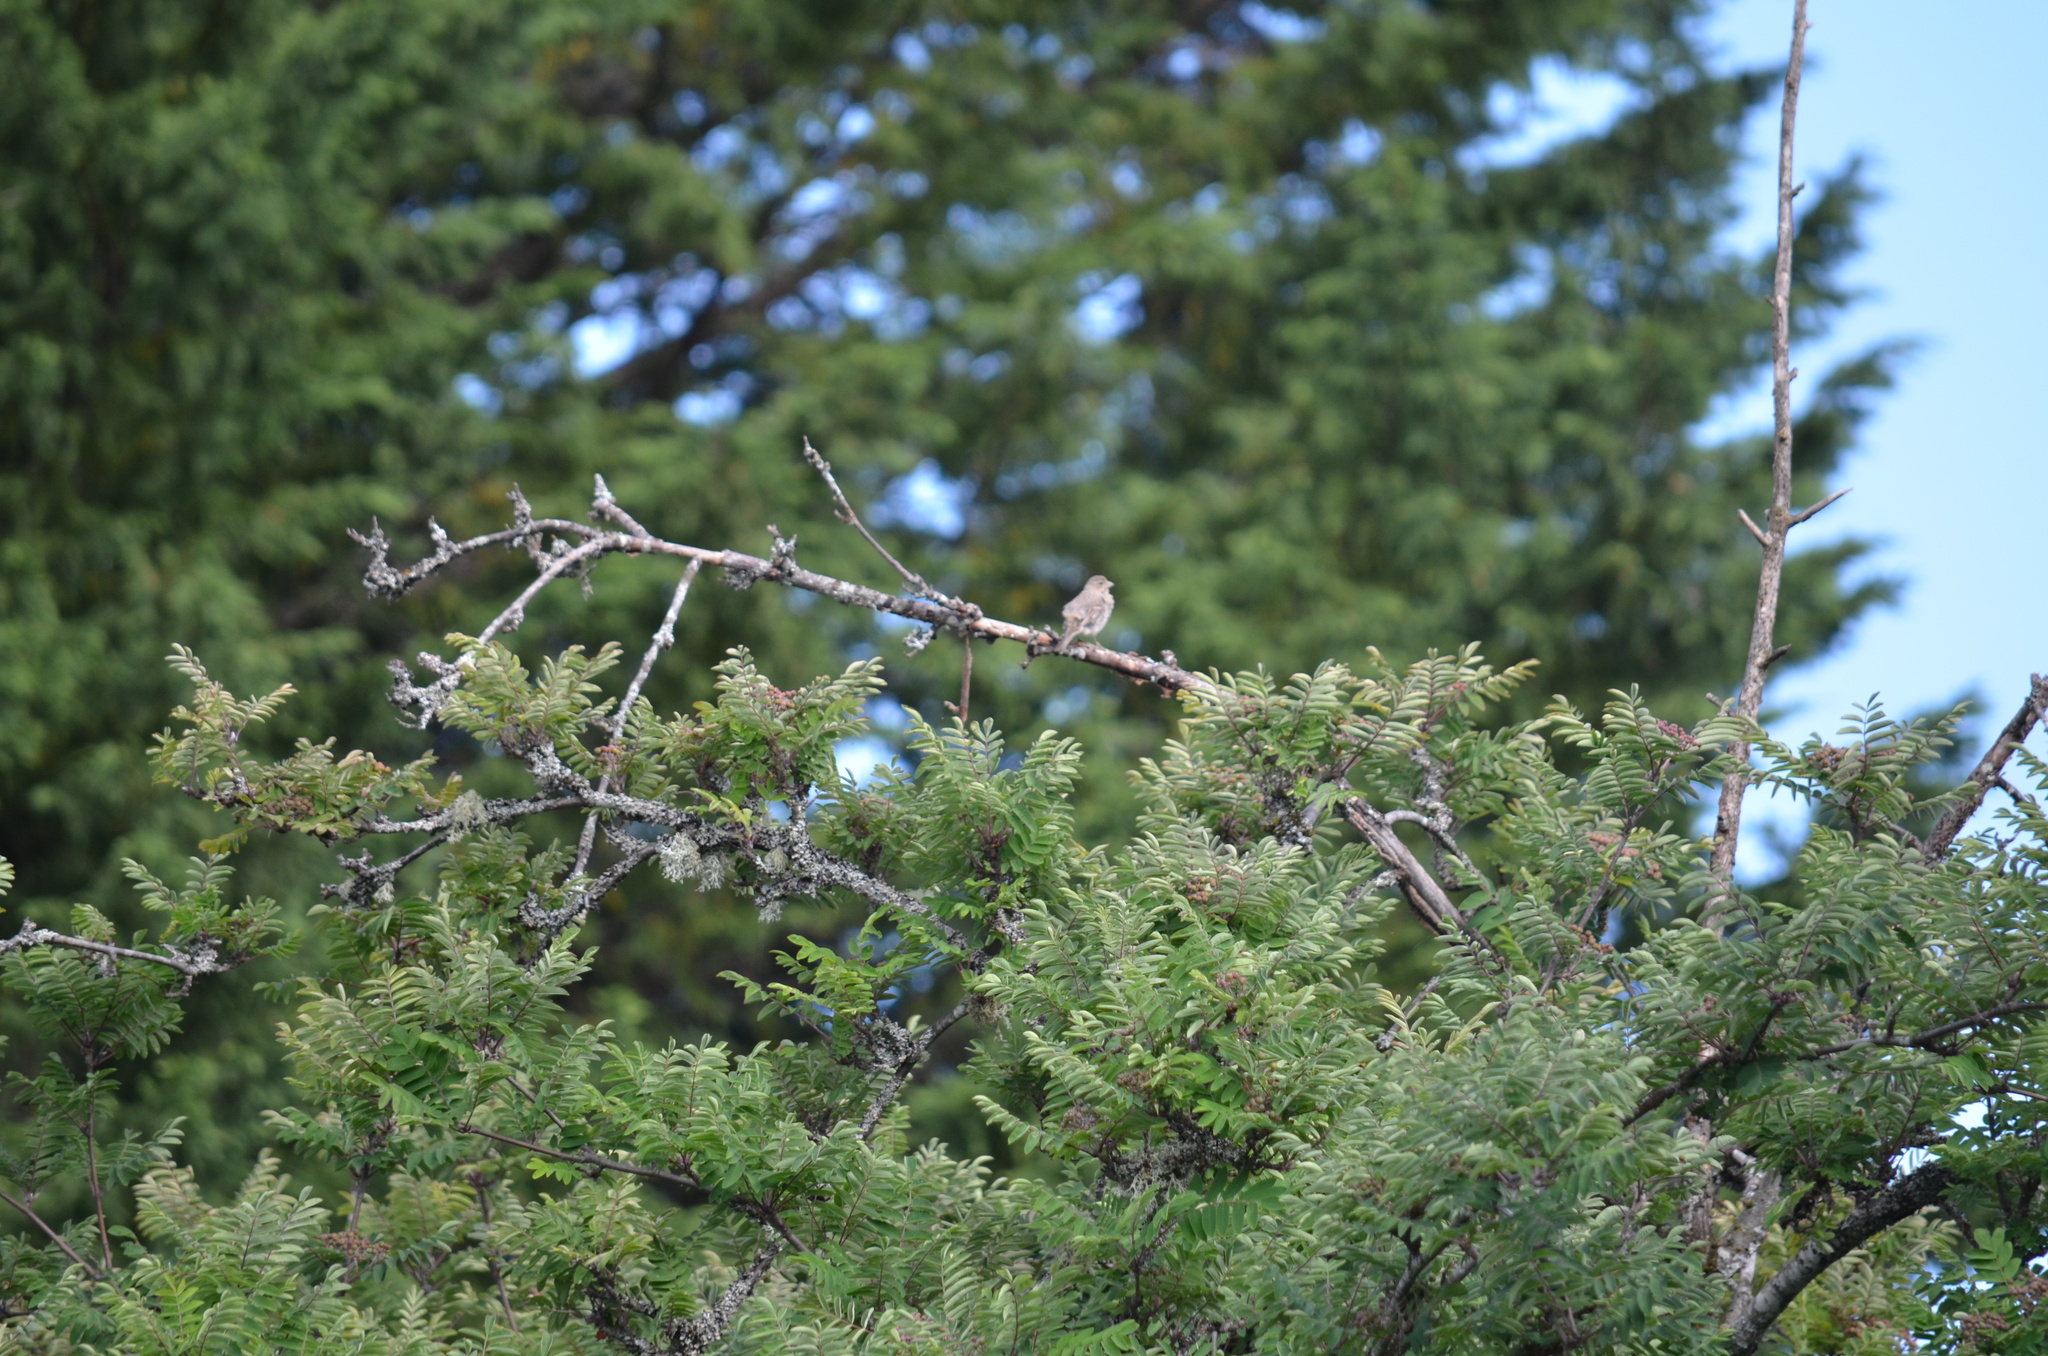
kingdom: Animalia
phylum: Chordata
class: Aves
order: Passeriformes
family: Fringillidae
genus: Haemorhous
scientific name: Haemorhous mexicanus
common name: House finch
